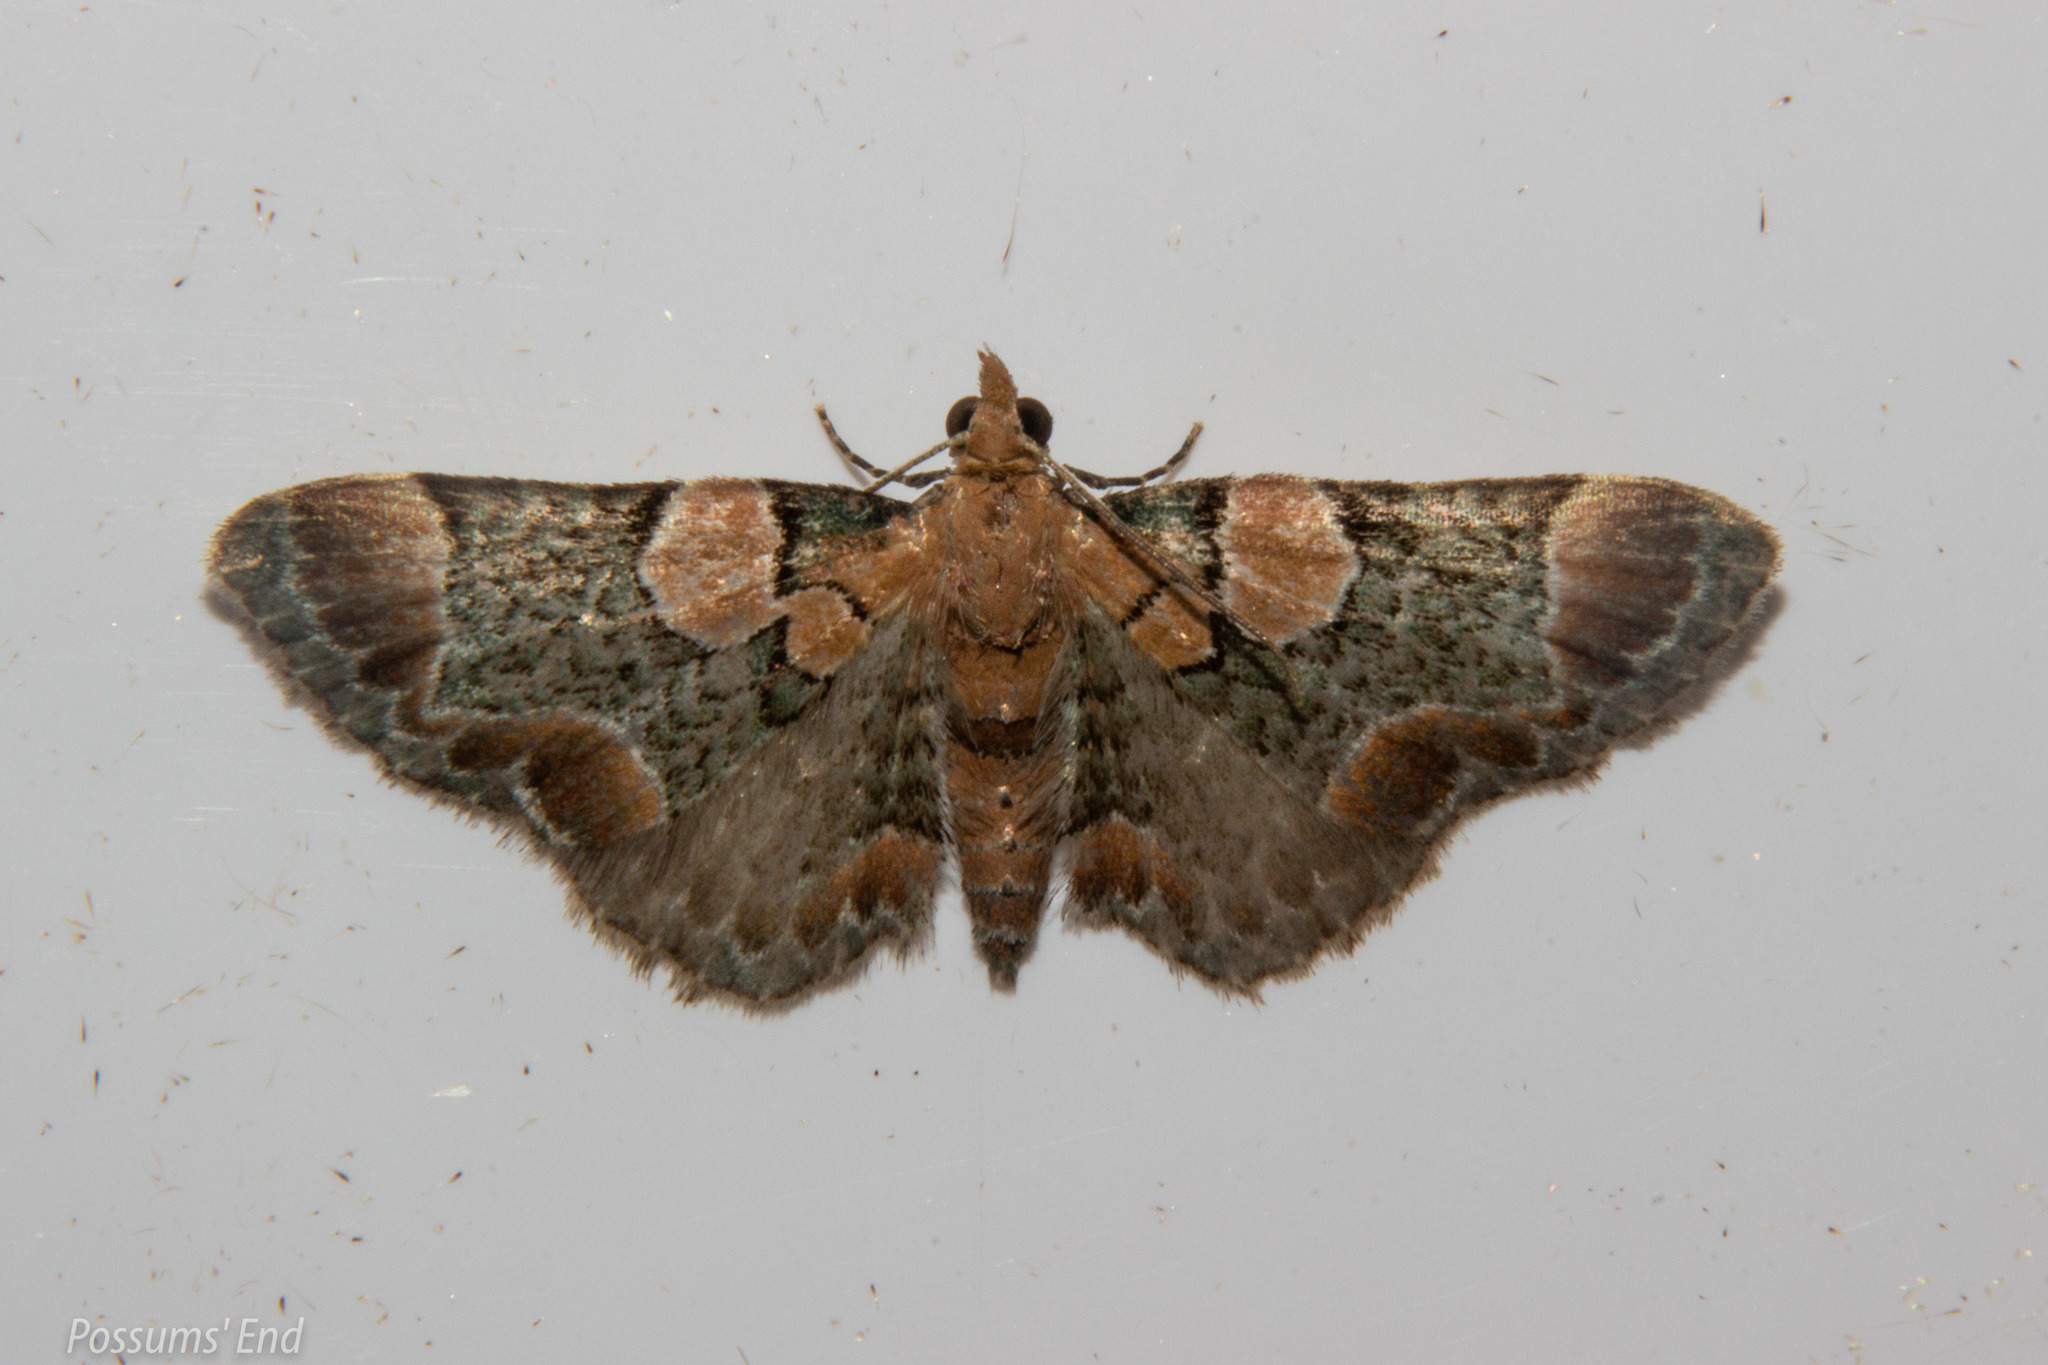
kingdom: Animalia
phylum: Arthropoda
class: Insecta
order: Lepidoptera
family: Geometridae
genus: Chloroclystis
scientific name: Chloroclystis
